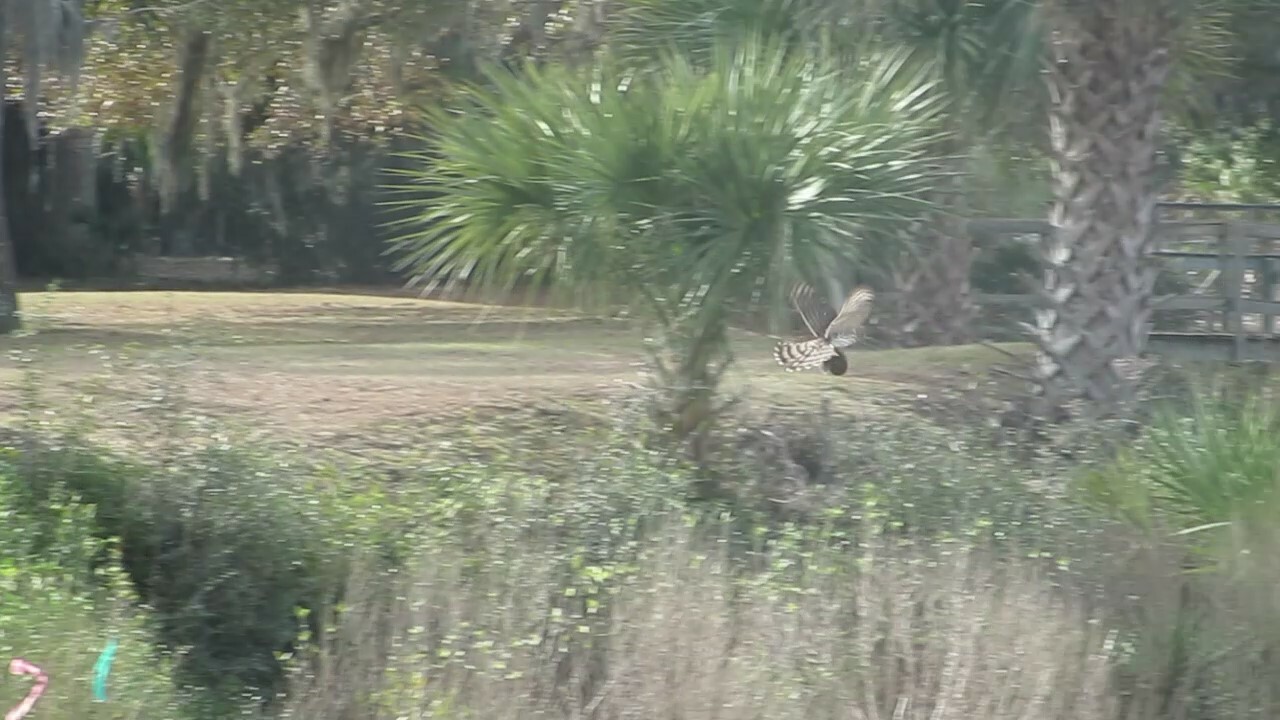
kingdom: Animalia
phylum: Chordata
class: Aves
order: Accipitriformes
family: Accipitridae
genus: Accipiter
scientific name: Accipiter cooperii
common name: Cooper's hawk
